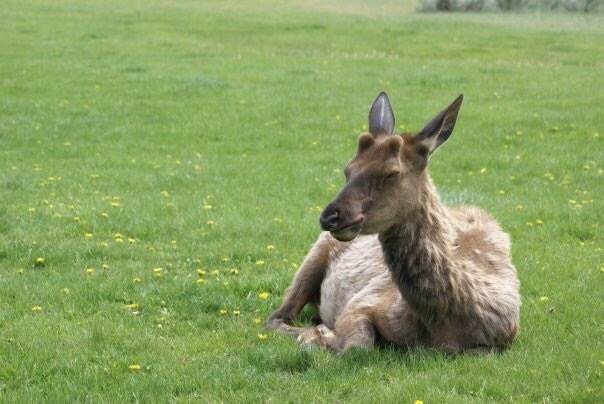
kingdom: Animalia
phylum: Chordata
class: Mammalia
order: Artiodactyla
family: Cervidae
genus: Cervus
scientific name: Cervus elaphus
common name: Red deer
